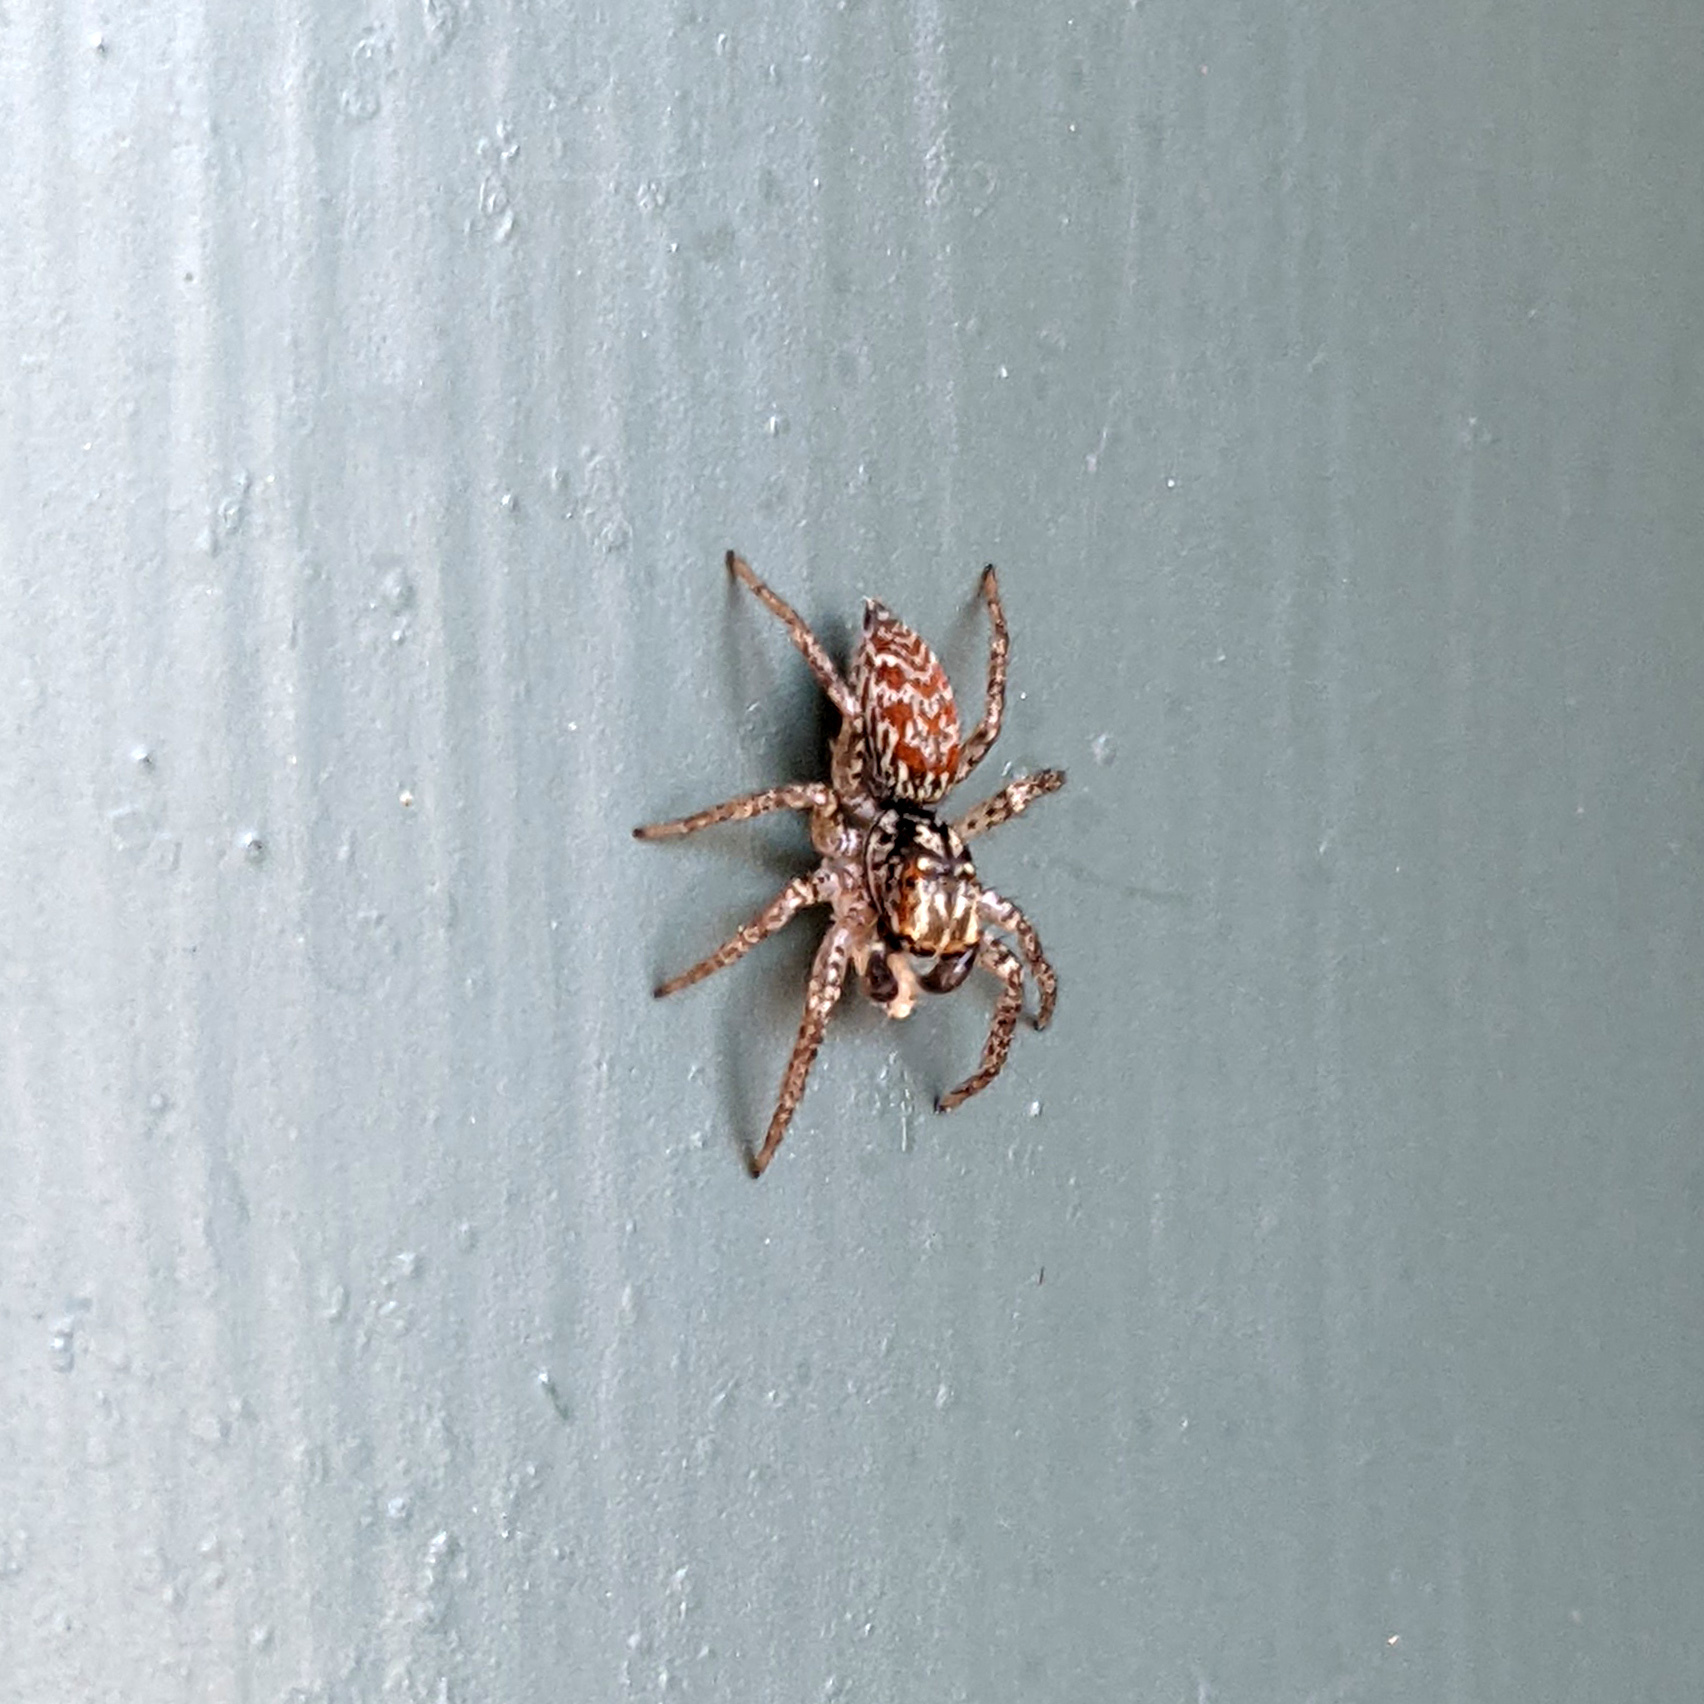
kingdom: Animalia
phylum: Arthropoda
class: Arachnida
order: Araneae
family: Salticidae
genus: Maevia
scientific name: Maevia inclemens
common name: Dimorphic jumper
